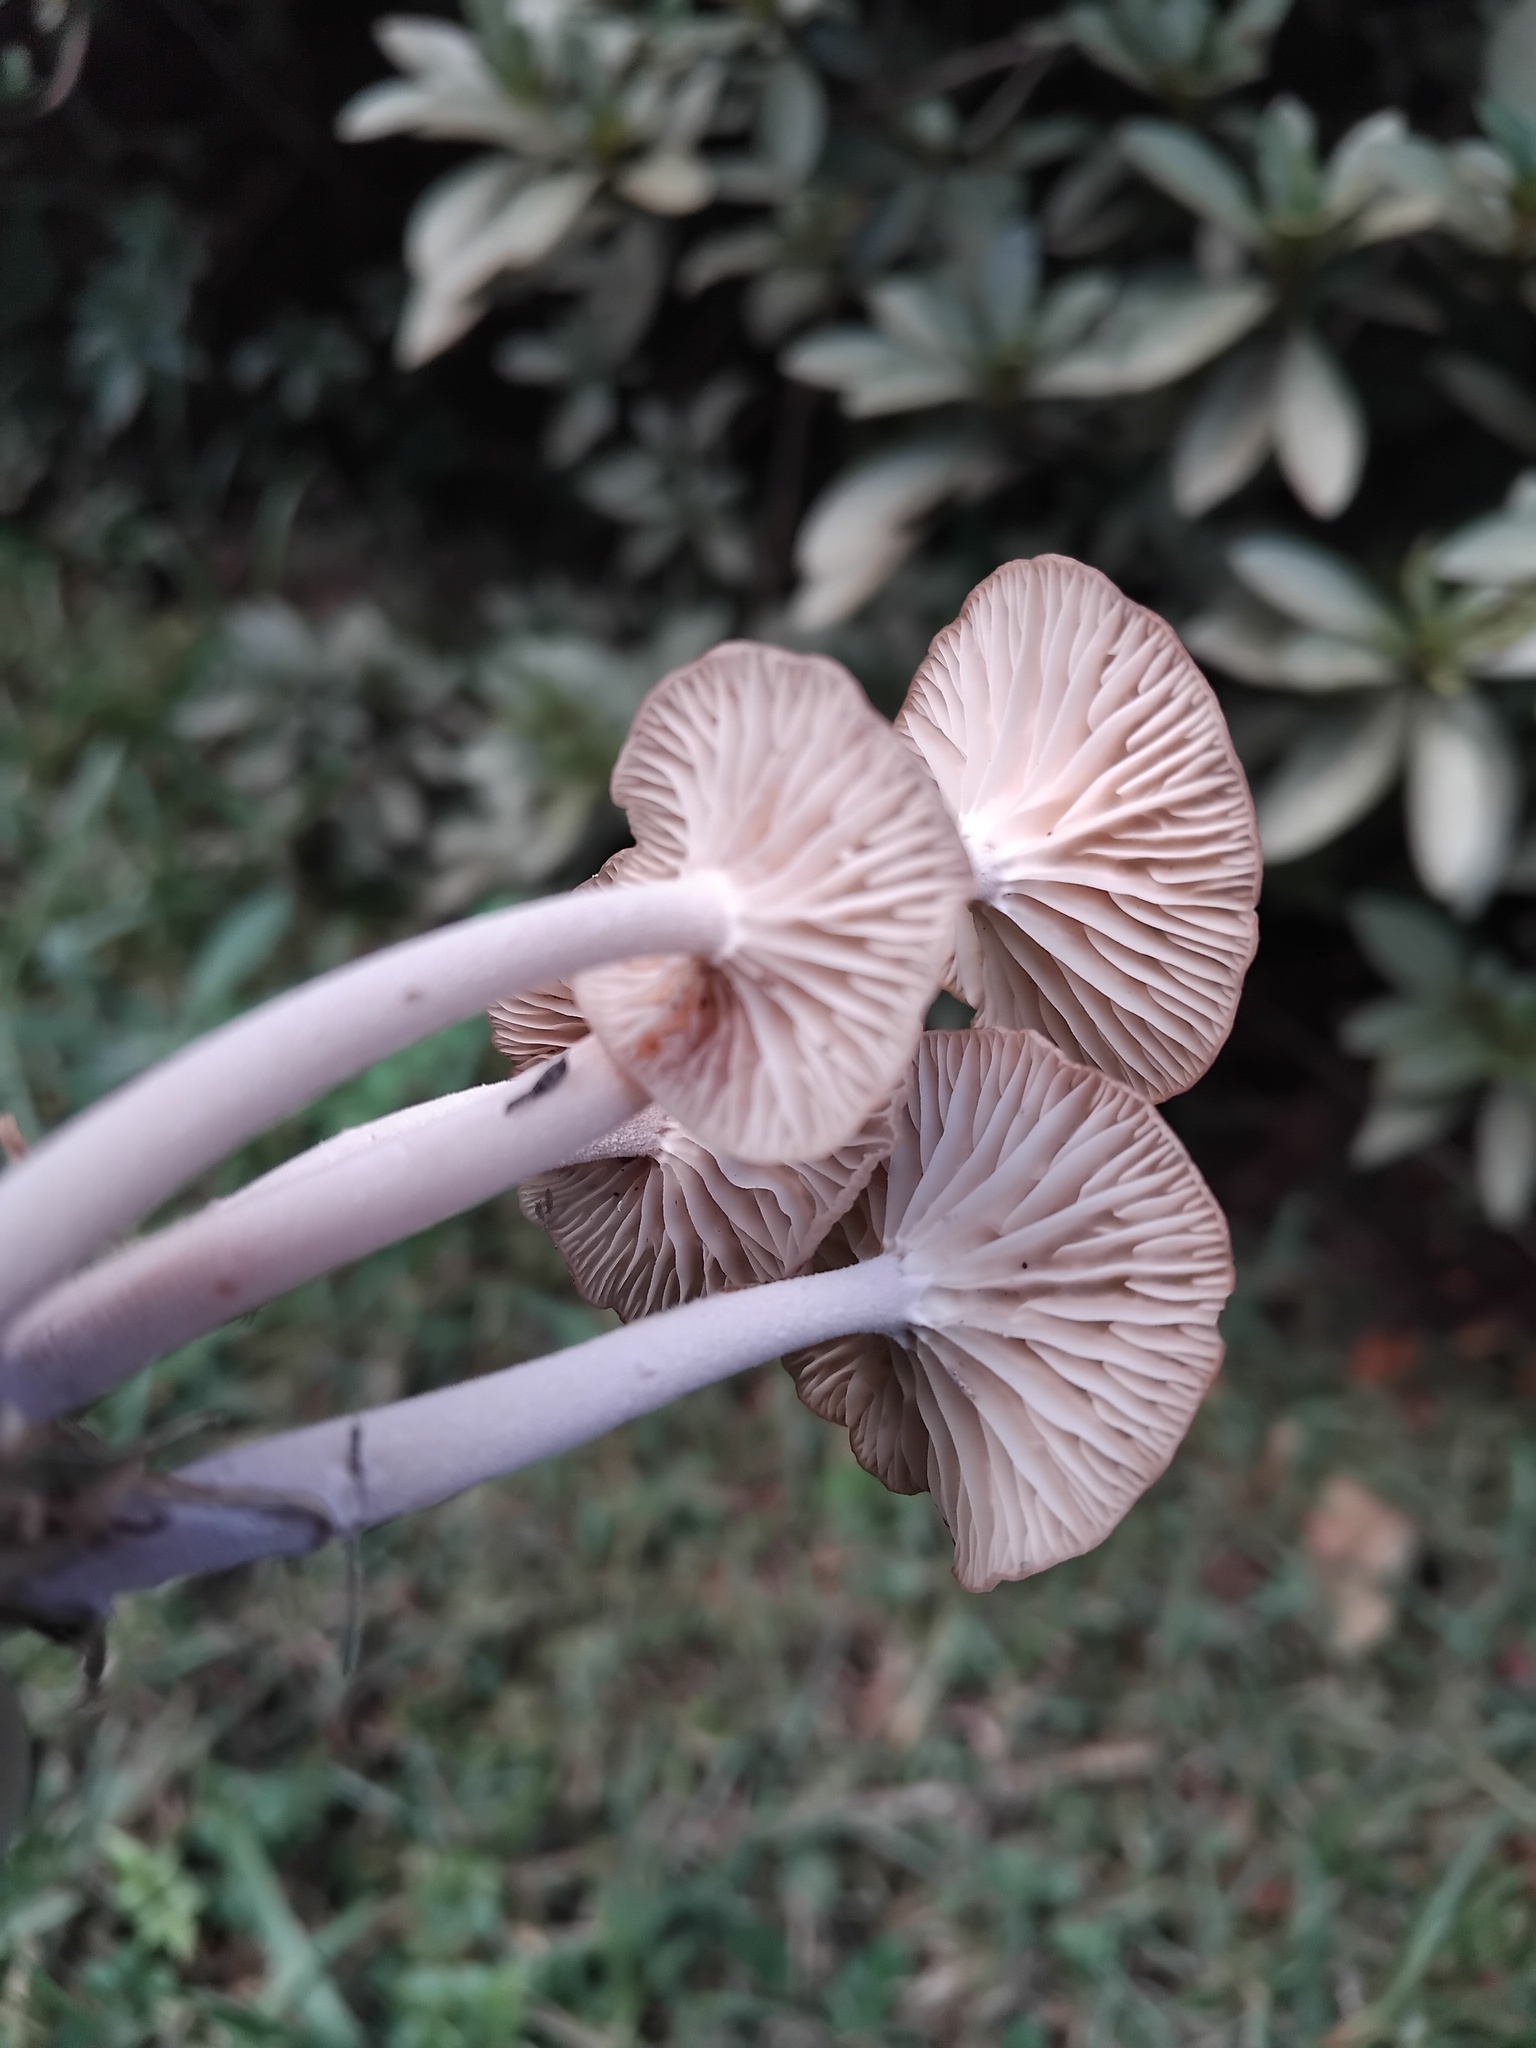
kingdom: Fungi
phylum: Basidiomycota
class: Agaricomycetes
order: Agaricales
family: Tricholomataceae
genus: Collybia
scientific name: Collybia kurara
